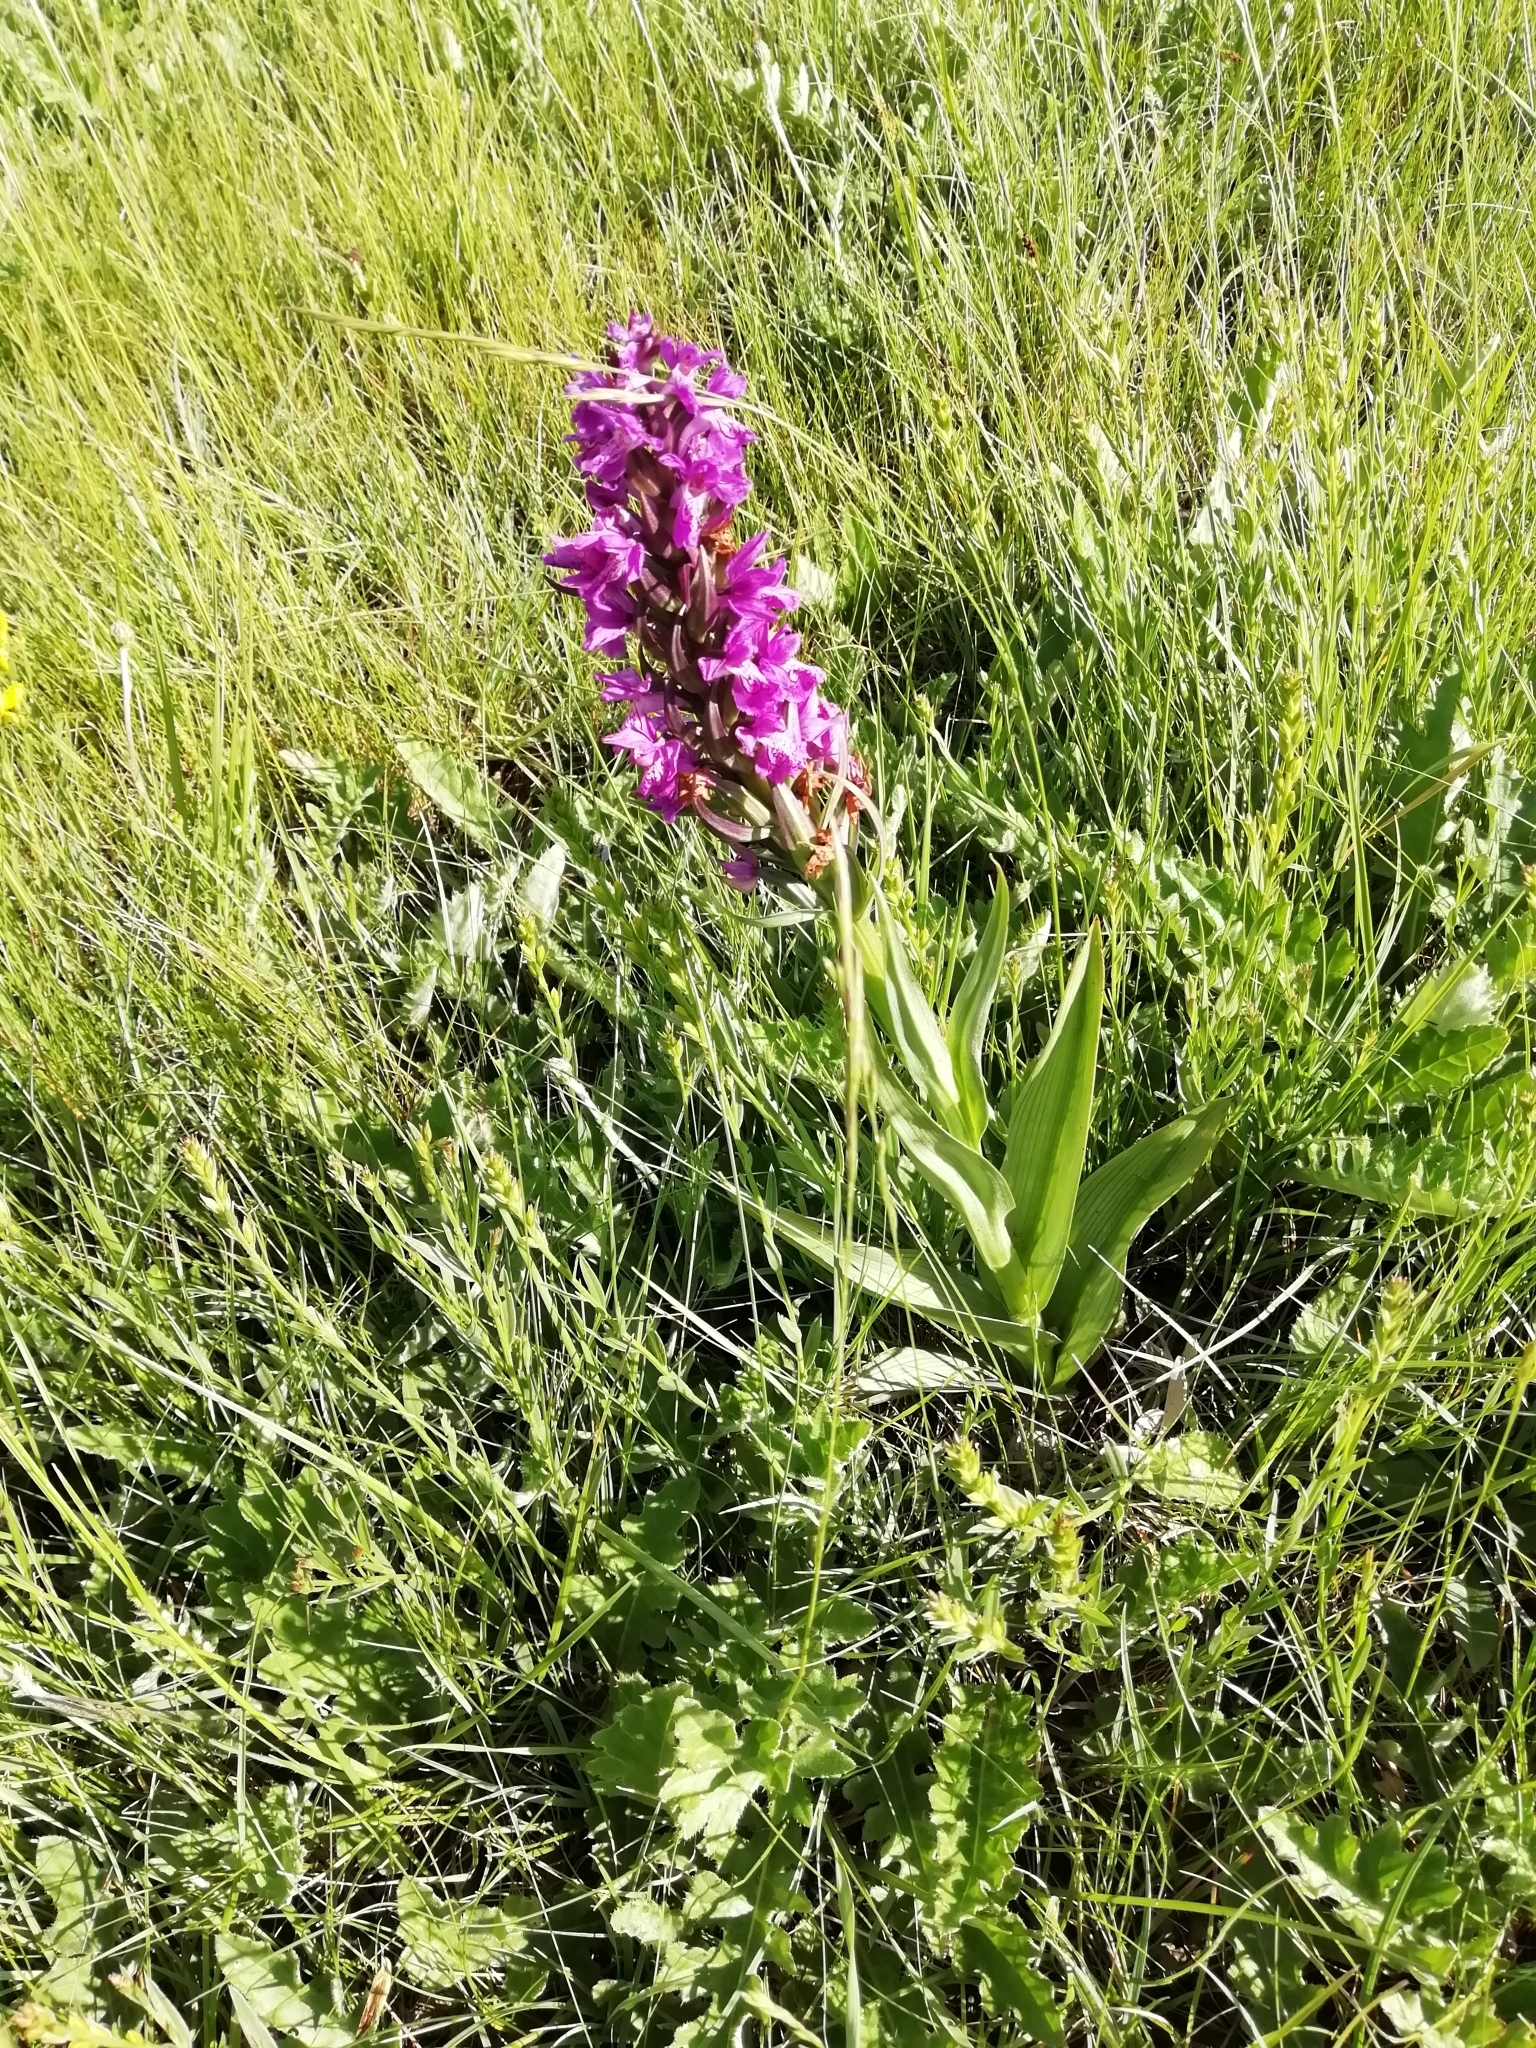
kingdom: Plantae
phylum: Tracheophyta
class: Liliopsida
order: Asparagales
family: Orchidaceae
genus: Dactylorhiza
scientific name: Dactylorhiza elata
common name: Stately dactylorhiza
